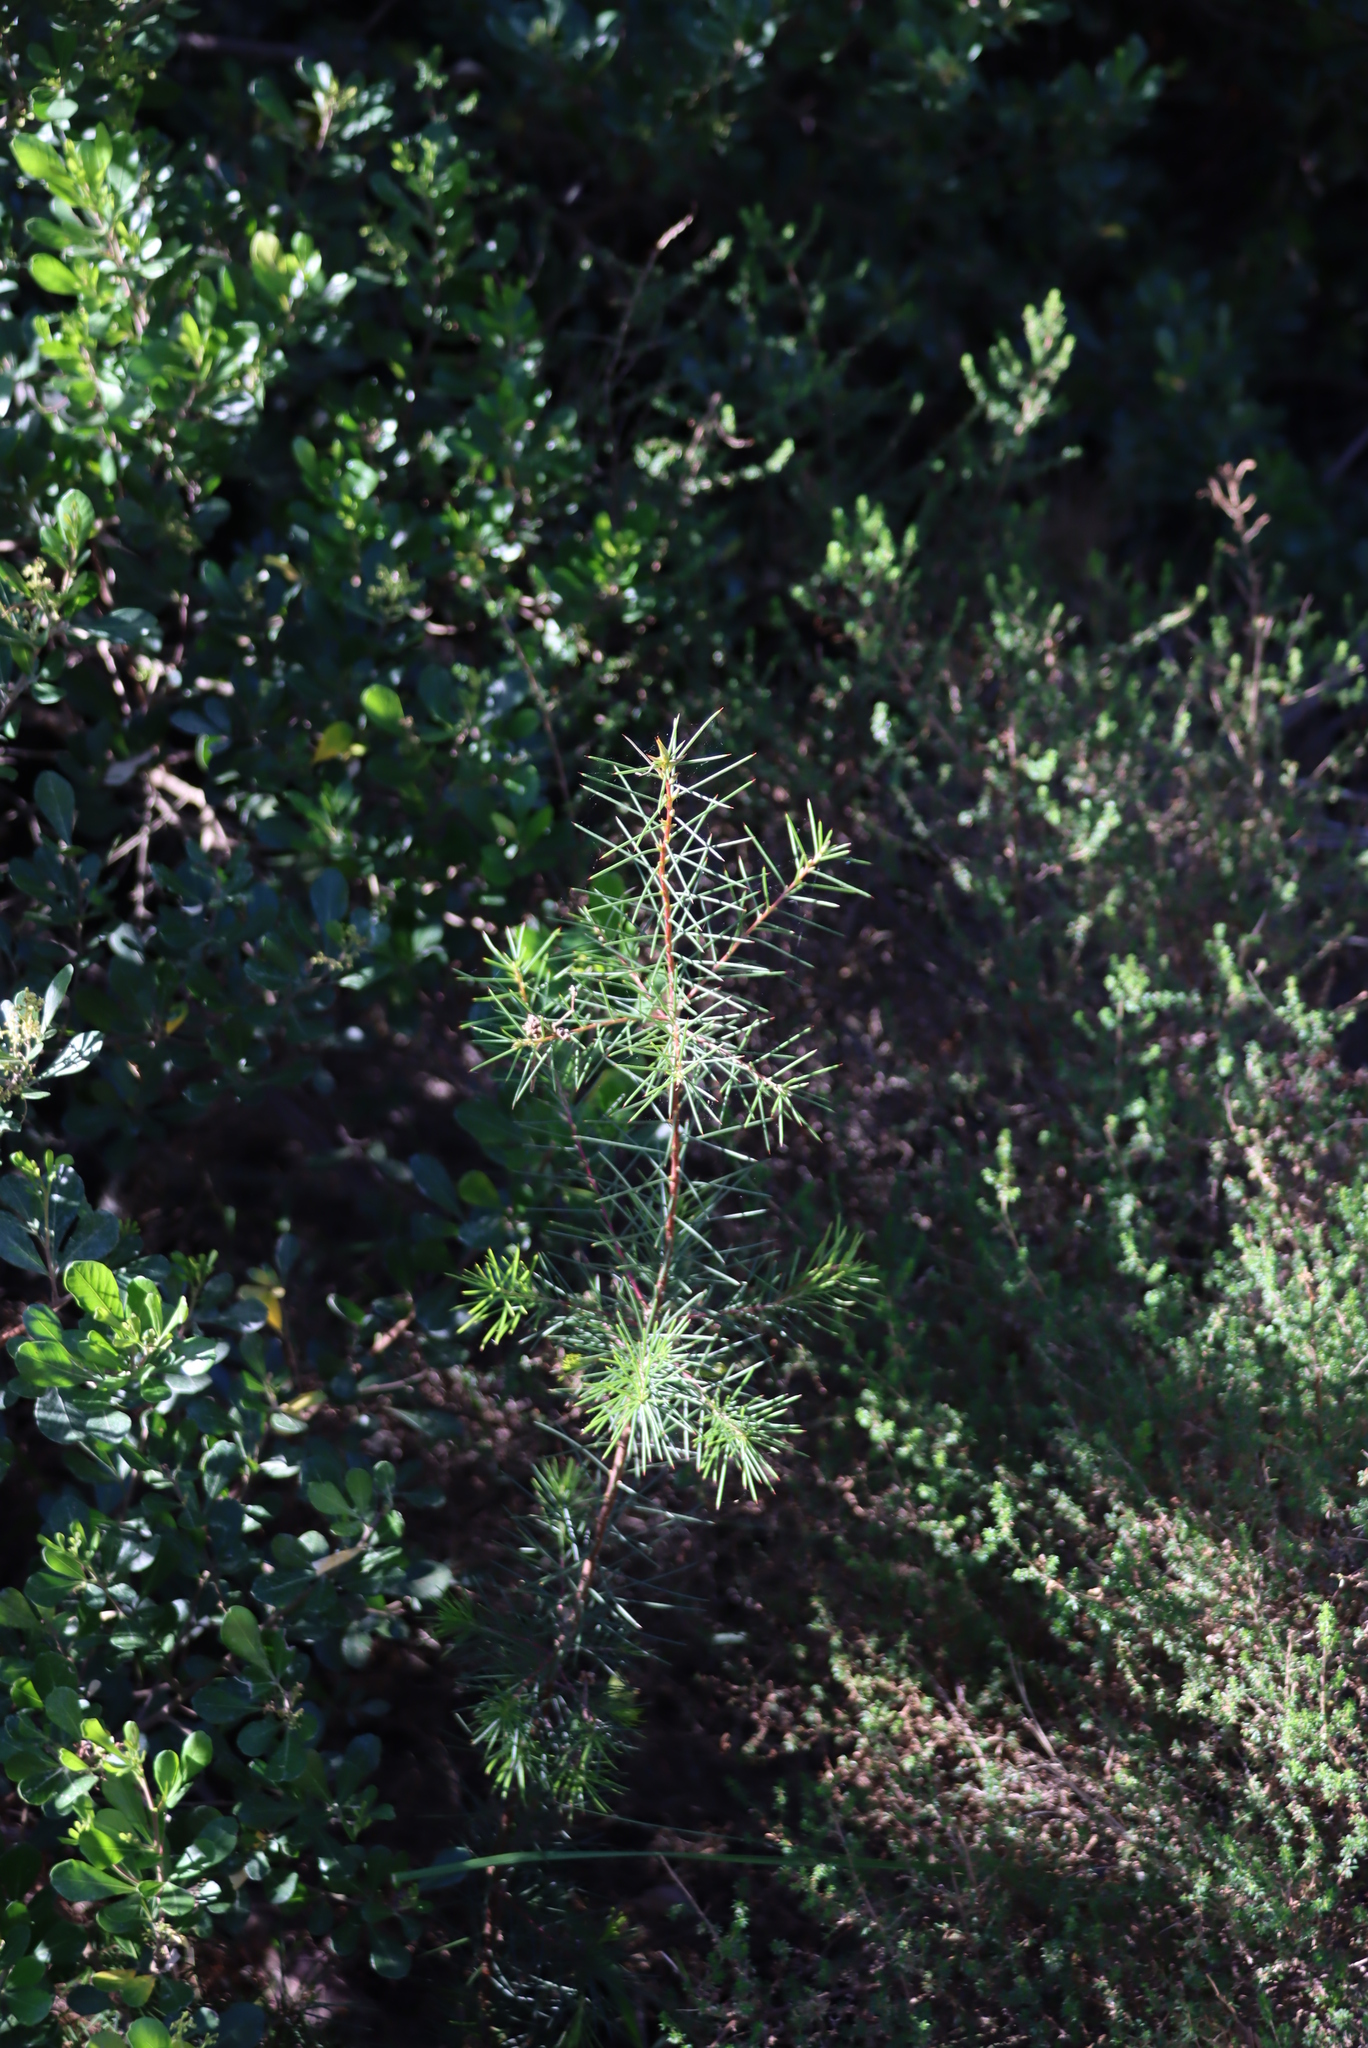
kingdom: Plantae
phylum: Tracheophyta
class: Magnoliopsida
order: Proteales
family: Proteaceae
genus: Hakea
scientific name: Hakea sericea
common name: Needle bush
